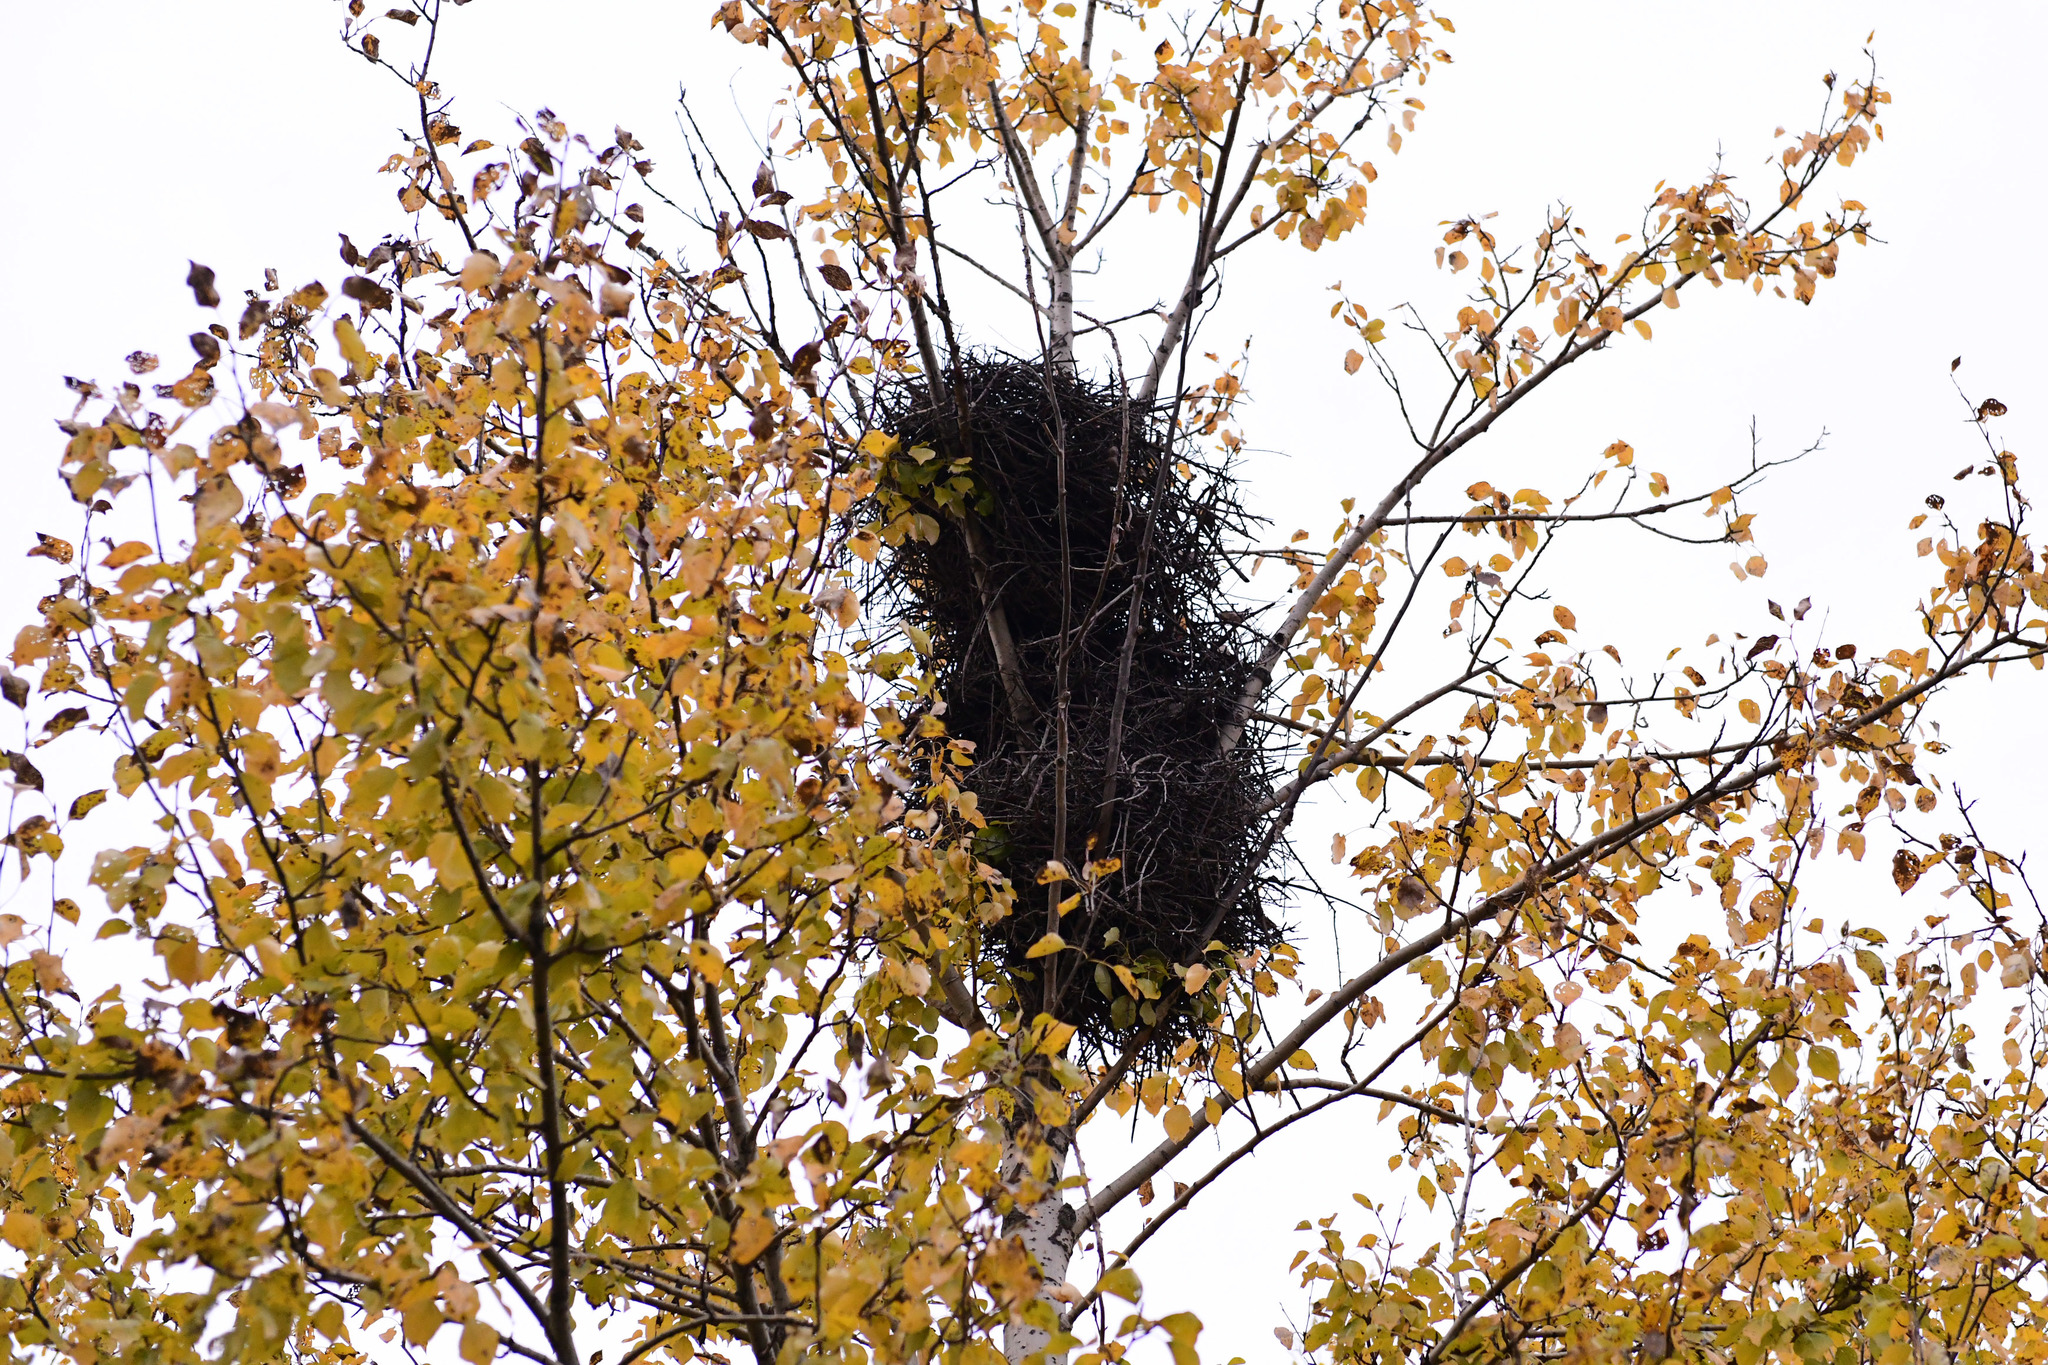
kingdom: Animalia
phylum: Chordata
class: Aves
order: Passeriformes
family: Corvidae
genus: Pica
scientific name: Pica serica
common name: Oriental magpie
